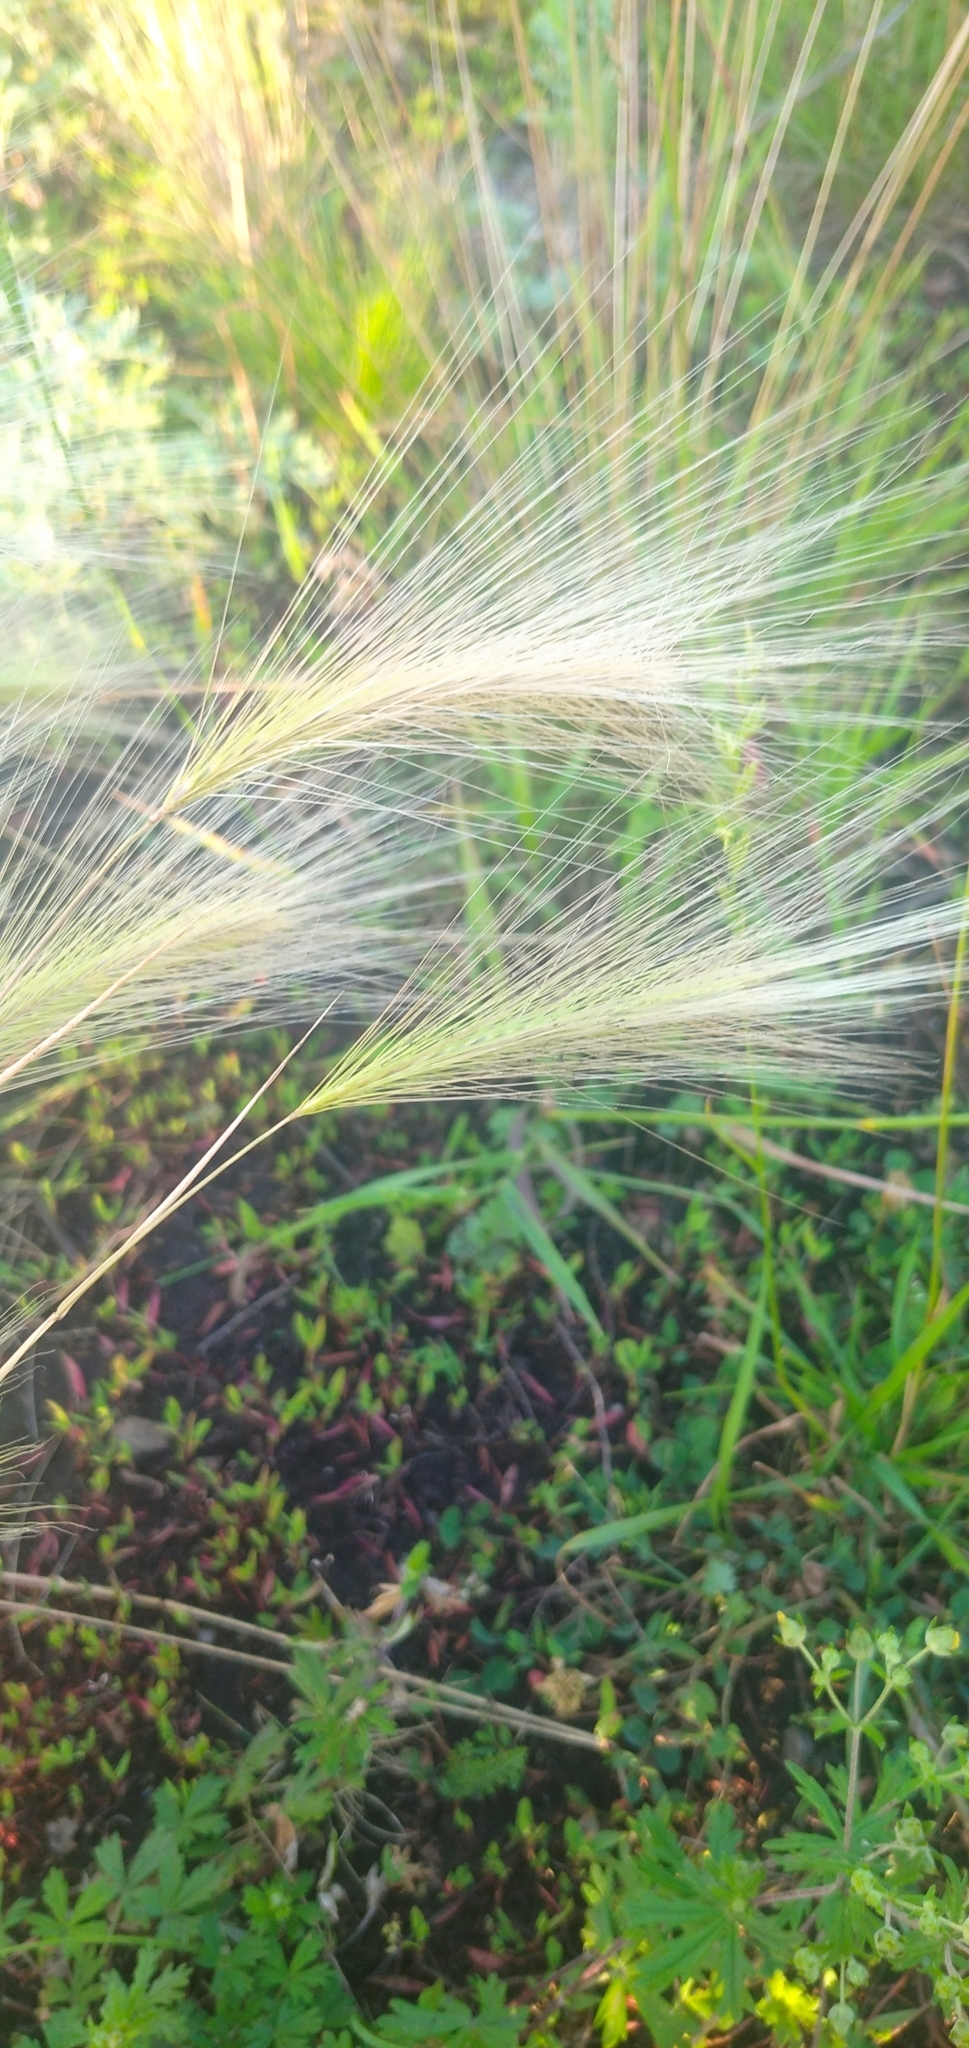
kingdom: Plantae
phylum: Tracheophyta
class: Liliopsida
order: Poales
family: Poaceae
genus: Hordeum
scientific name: Hordeum jubatum
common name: Foxtail barley
